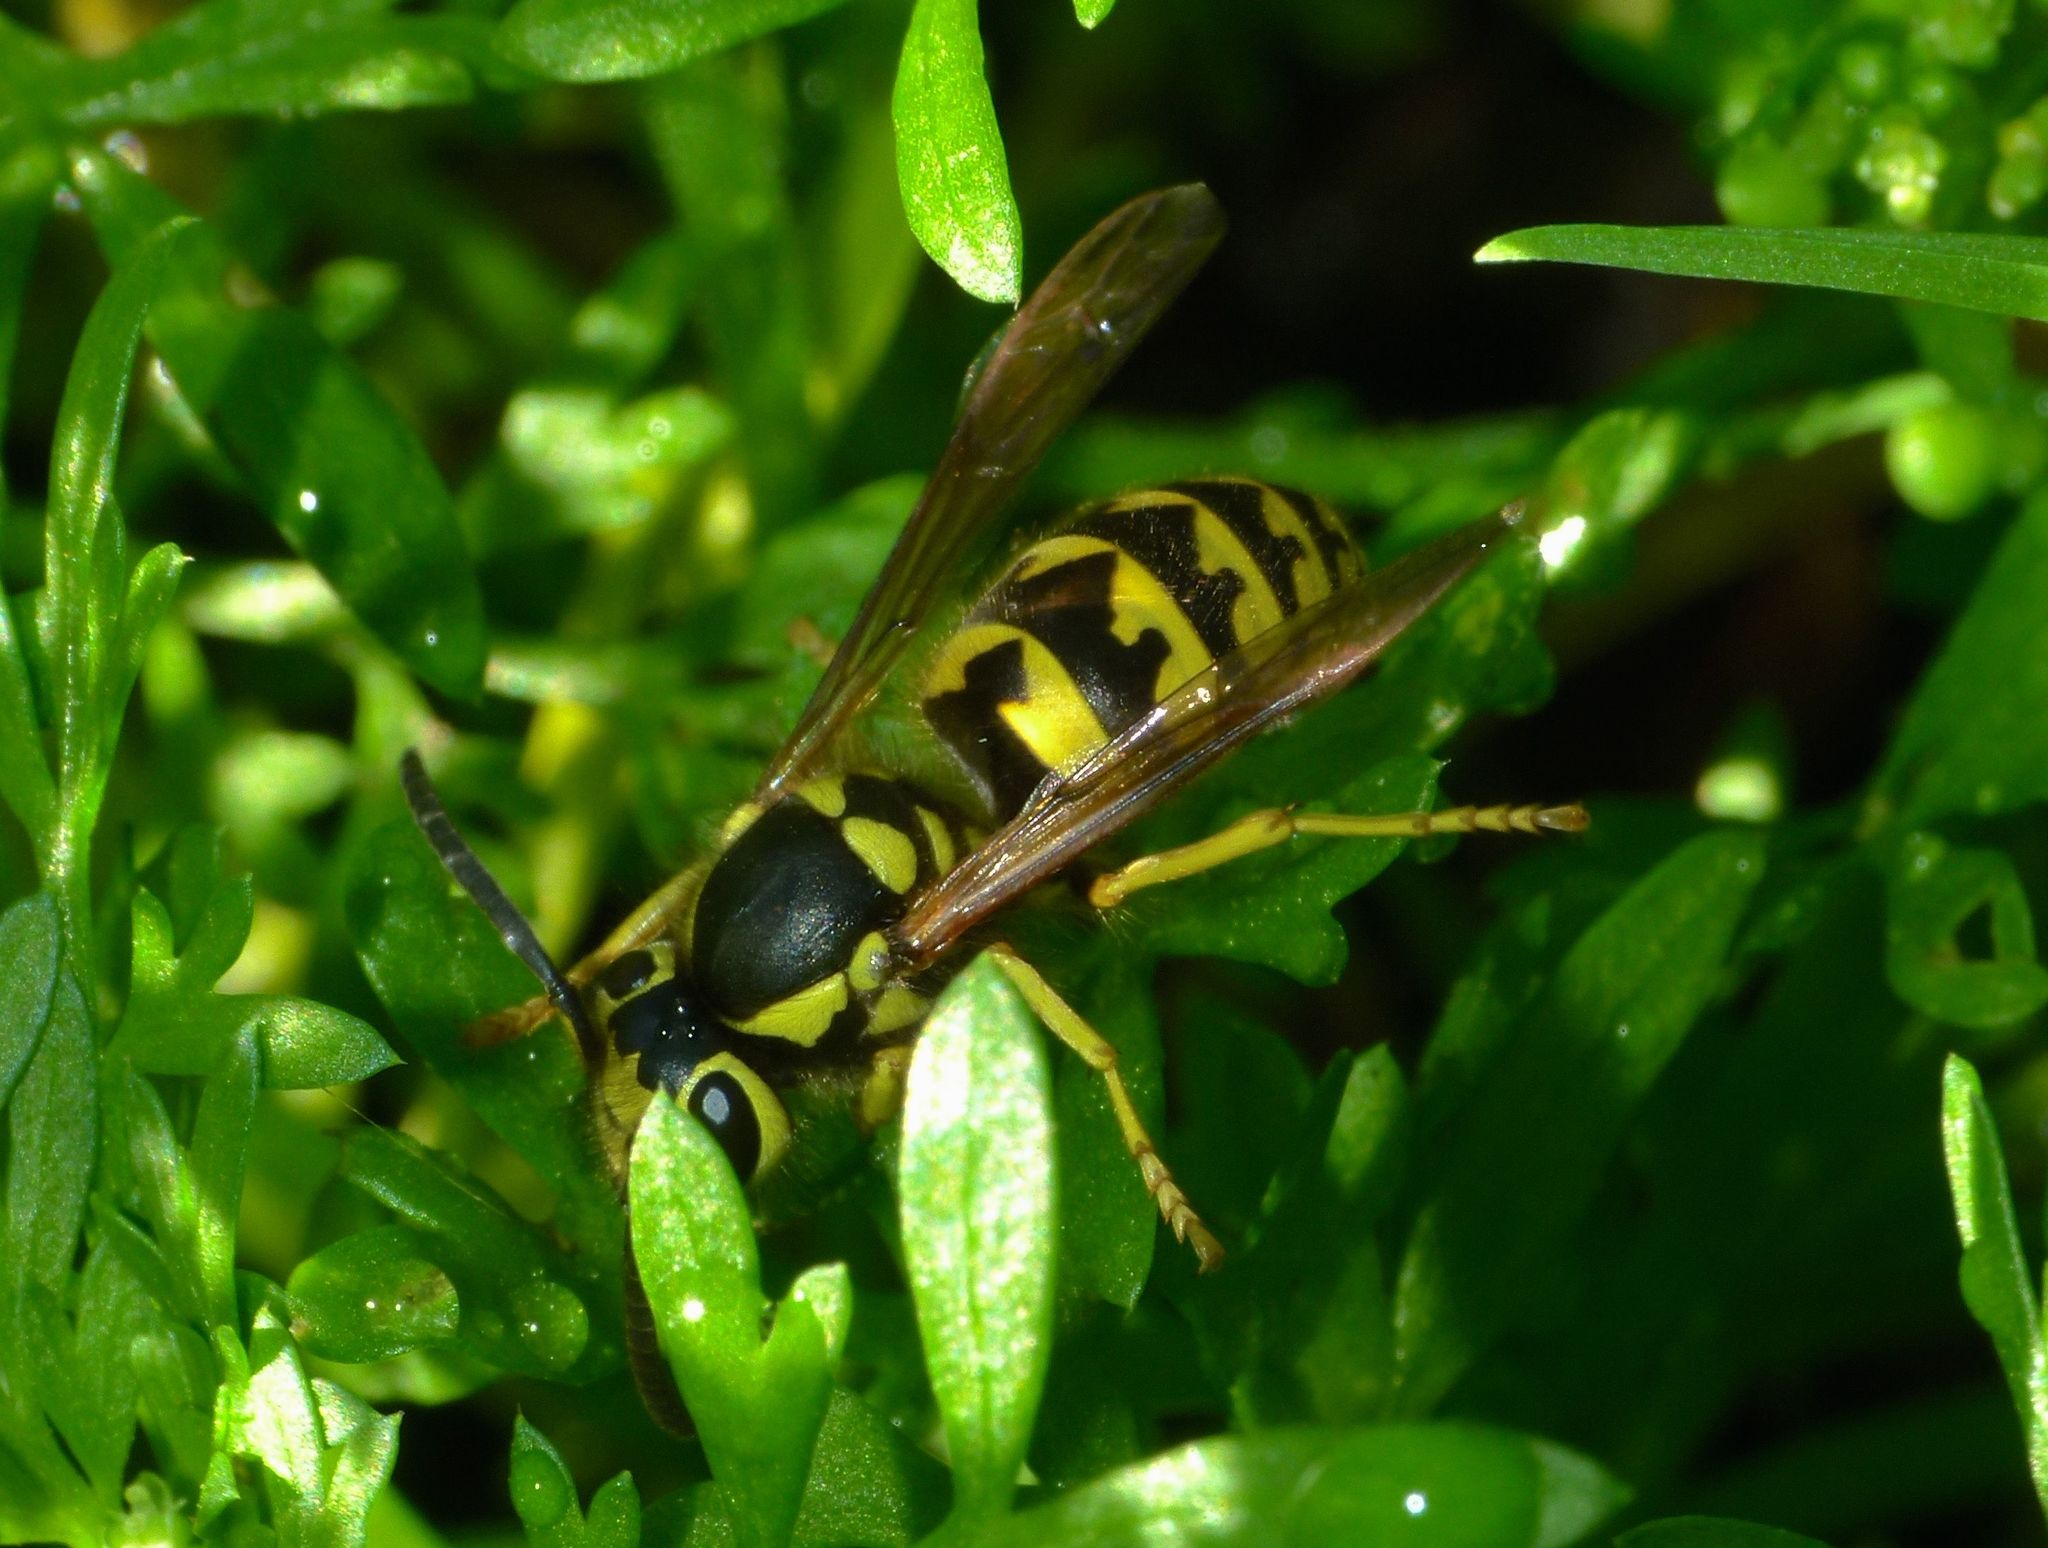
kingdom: Animalia
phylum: Arthropoda
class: Insecta
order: Hymenoptera
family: Vespidae
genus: Vespula
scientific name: Vespula pensylvanica
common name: Western yellowjacket
